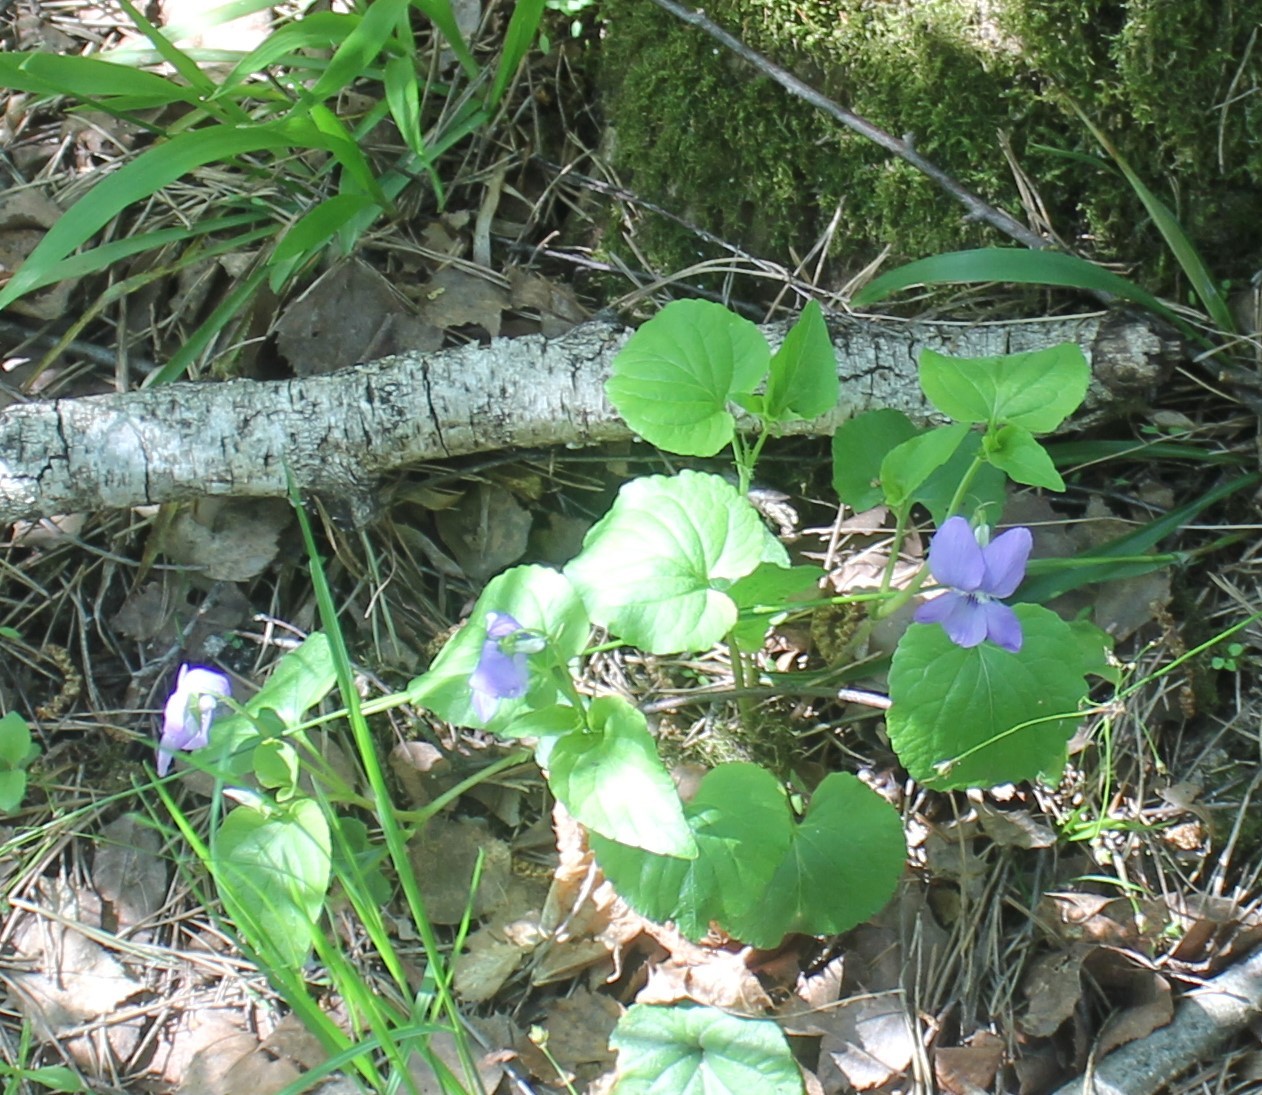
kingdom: Plantae
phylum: Tracheophyta
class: Magnoliopsida
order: Malpighiales
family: Violaceae
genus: Viola
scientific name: Viola riviniana
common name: Common dog-violet
